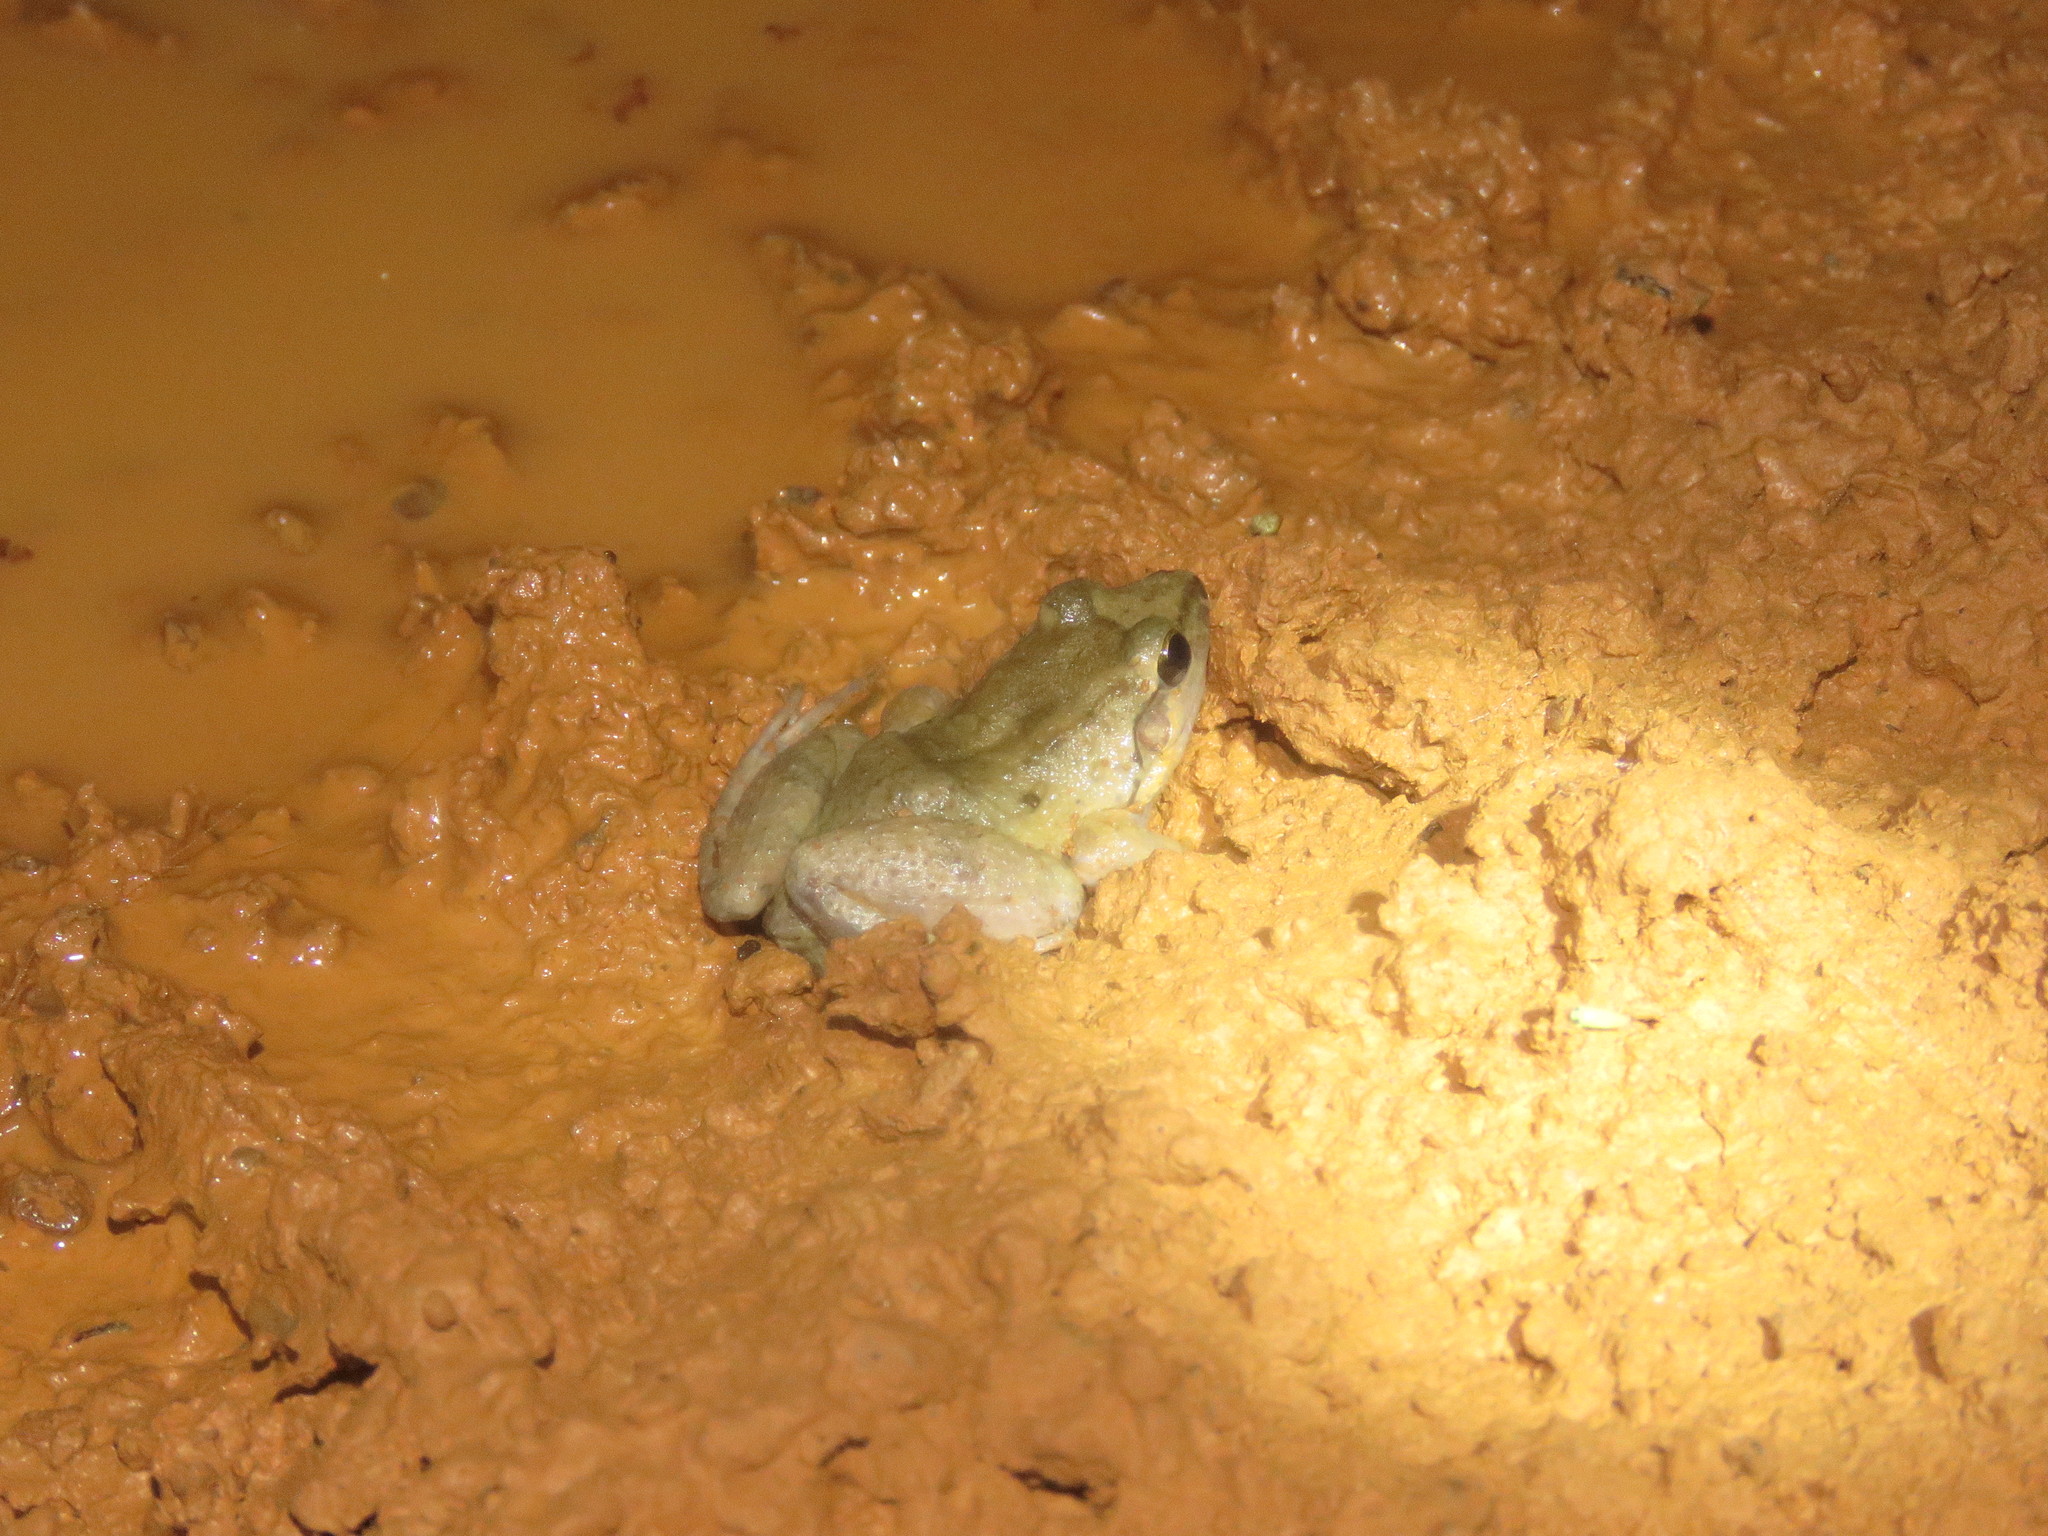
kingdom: Animalia
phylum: Chordata
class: Amphibia
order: Anura
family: Leptodactylidae
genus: Leptodactylus
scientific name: Leptodactylus petersii
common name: Peters' thin-toed frog
